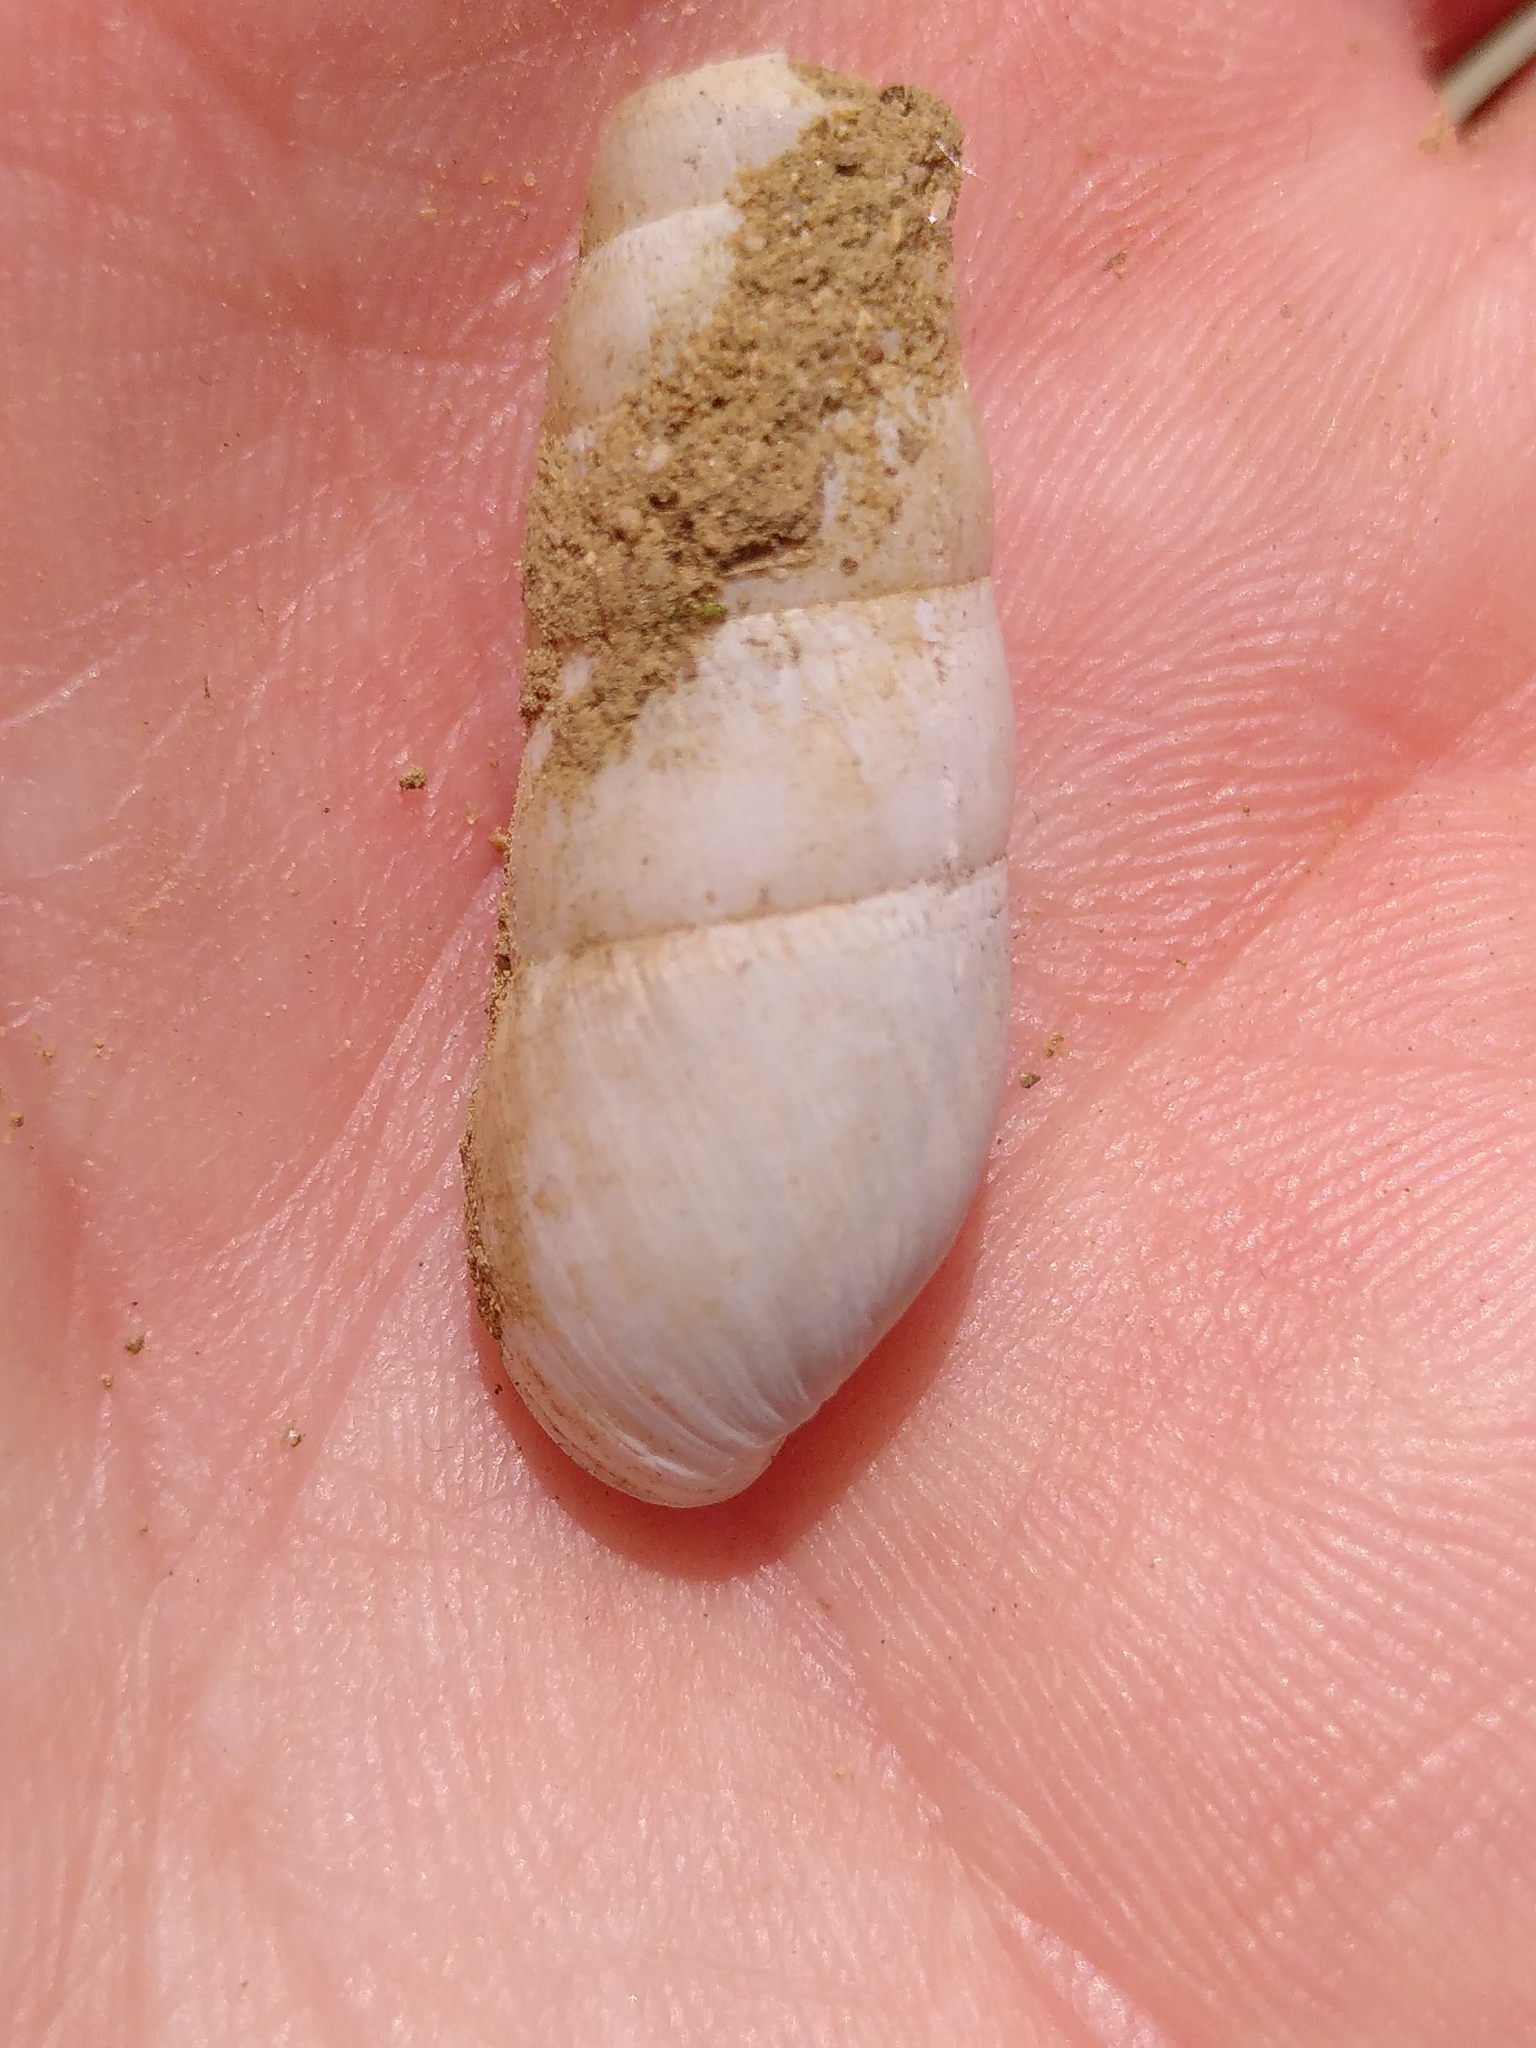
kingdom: Animalia
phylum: Mollusca
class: Gastropoda
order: Stylommatophora
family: Achatinidae
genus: Rumina
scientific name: Rumina saharica
